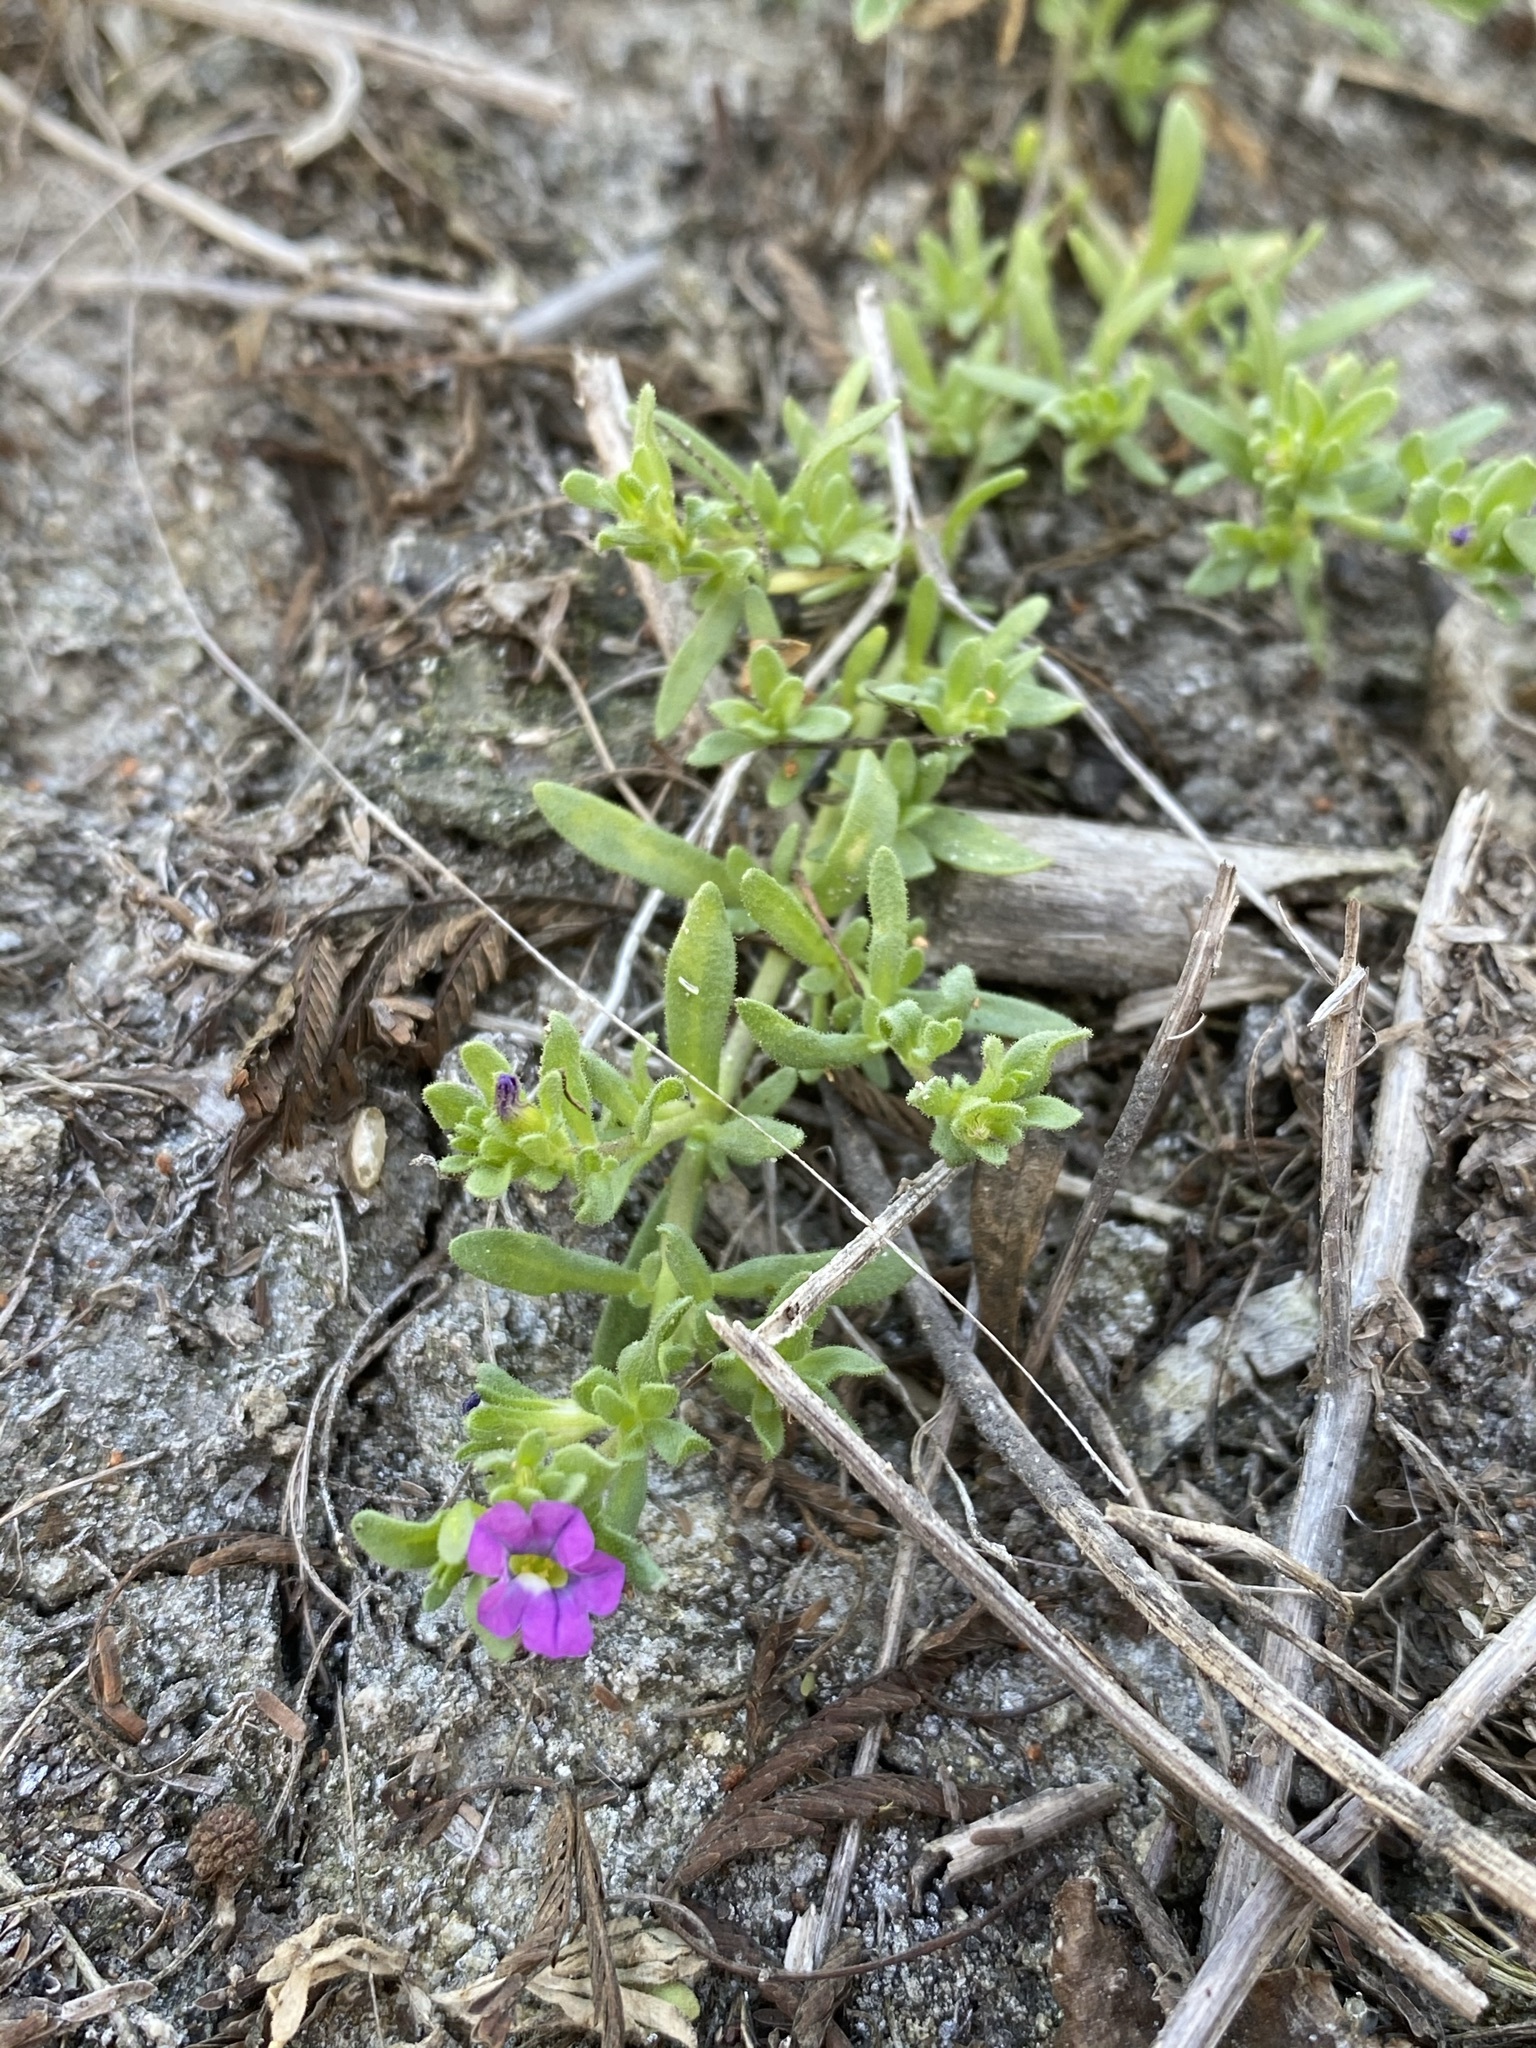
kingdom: Plantae
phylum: Tracheophyta
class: Magnoliopsida
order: Solanales
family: Solanaceae
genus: Calibrachoa
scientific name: Calibrachoa parviflora
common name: Seaside petunia
